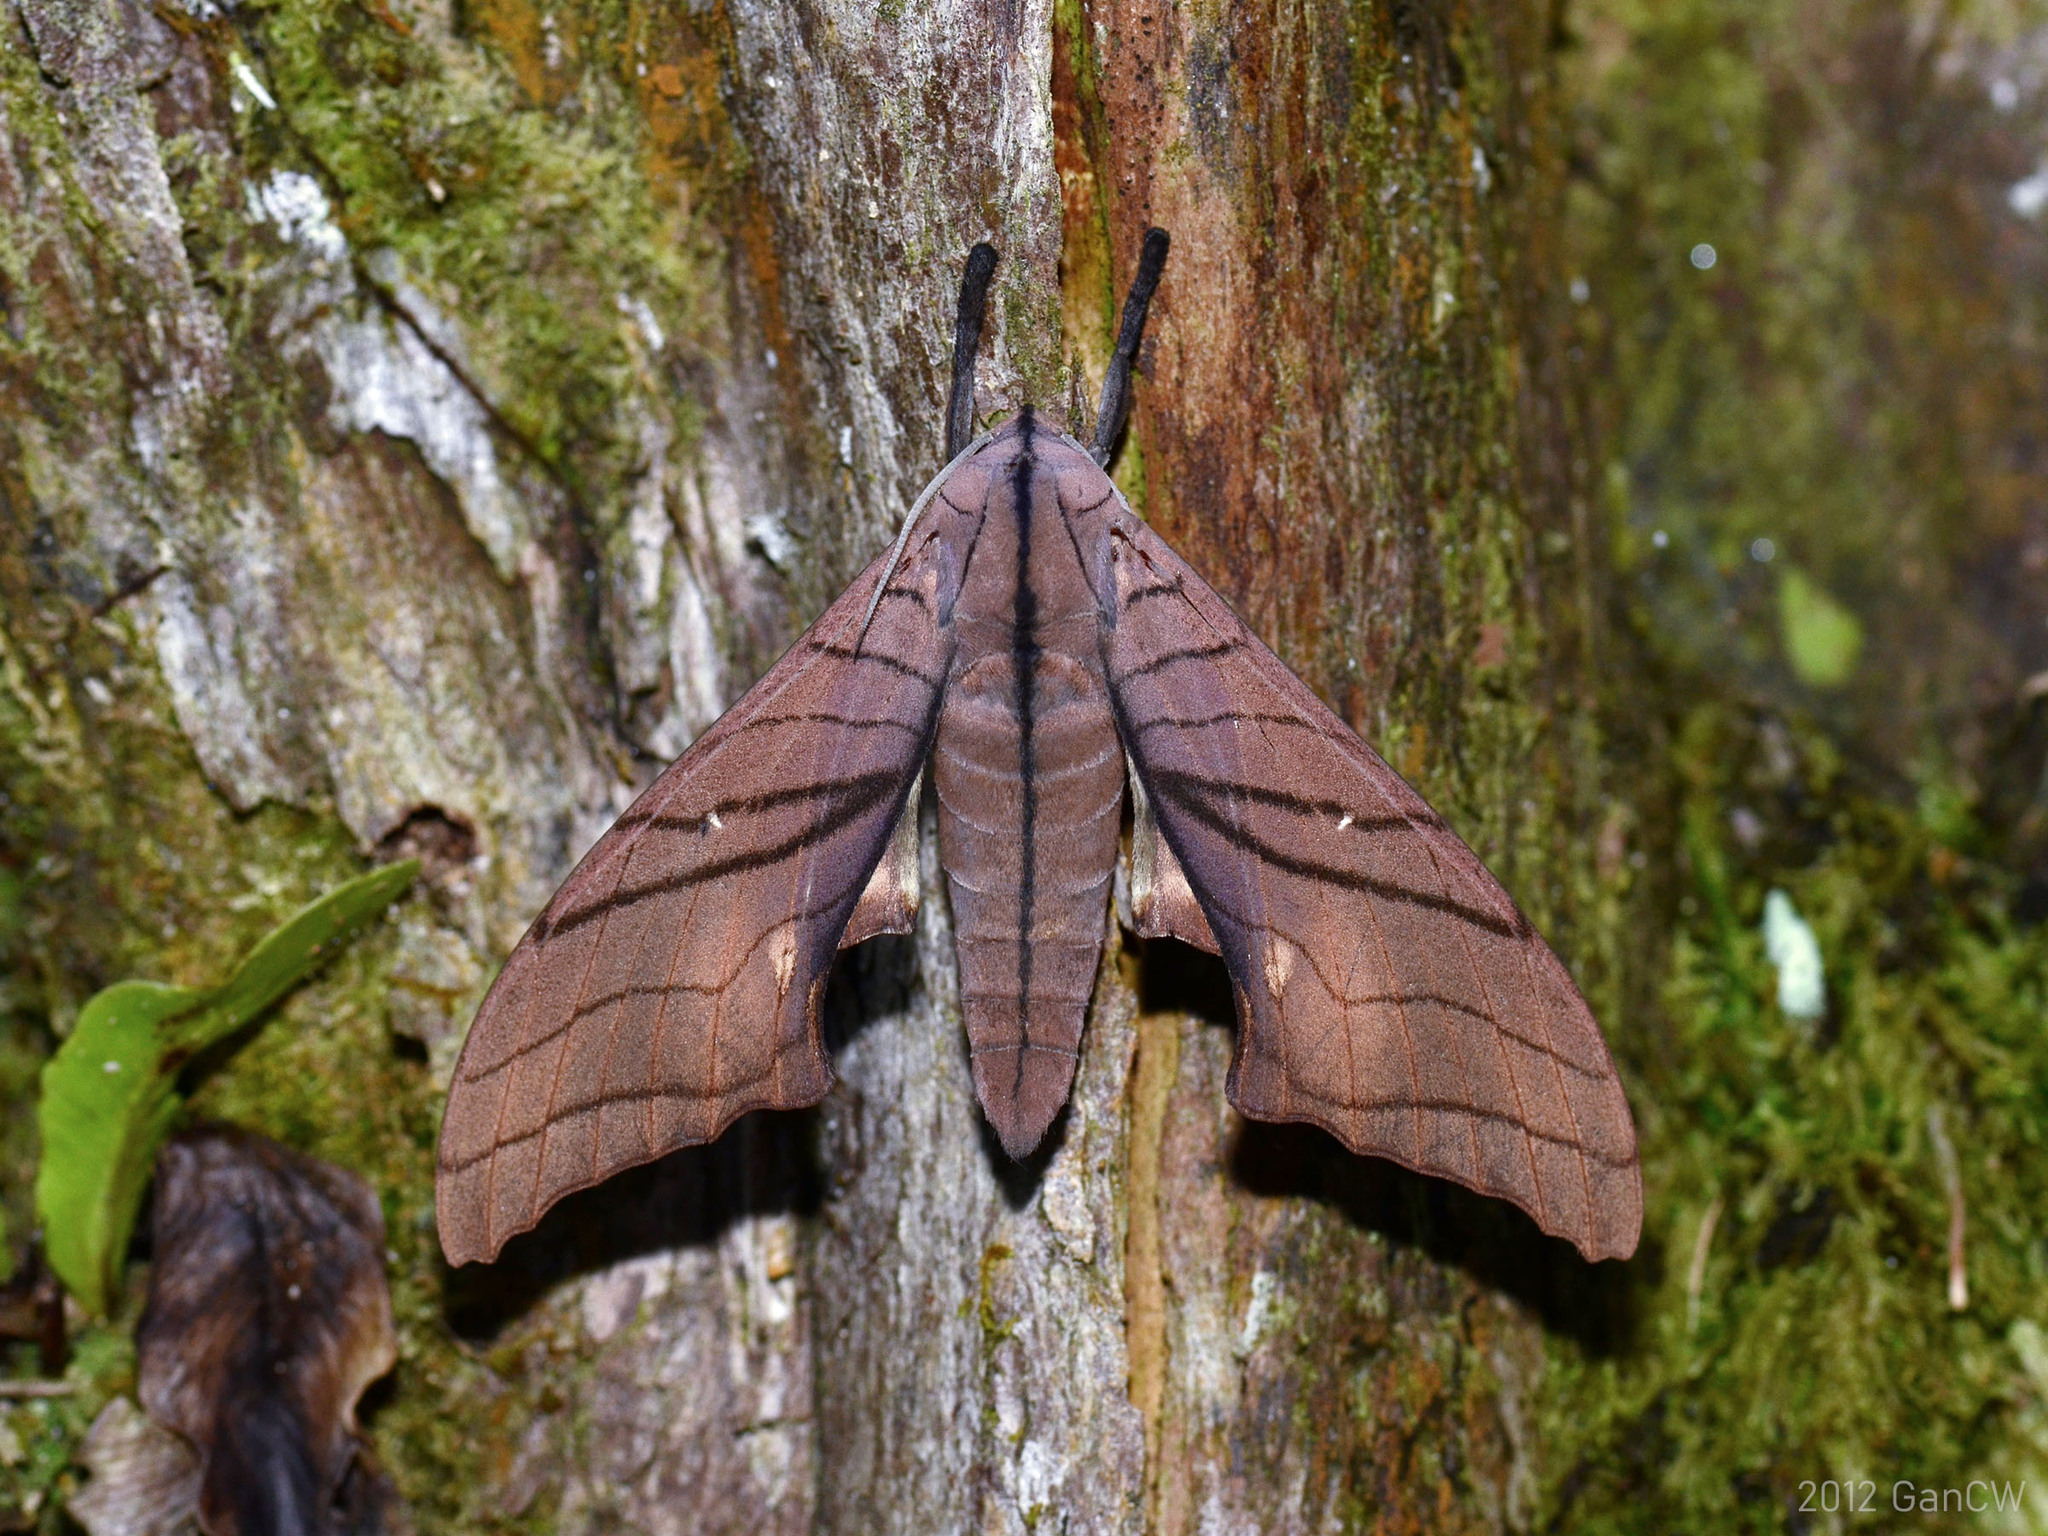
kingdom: Animalia
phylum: Arthropoda
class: Insecta
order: Lepidoptera
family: Sphingidae
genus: Marumba
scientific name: Marumba cristata
